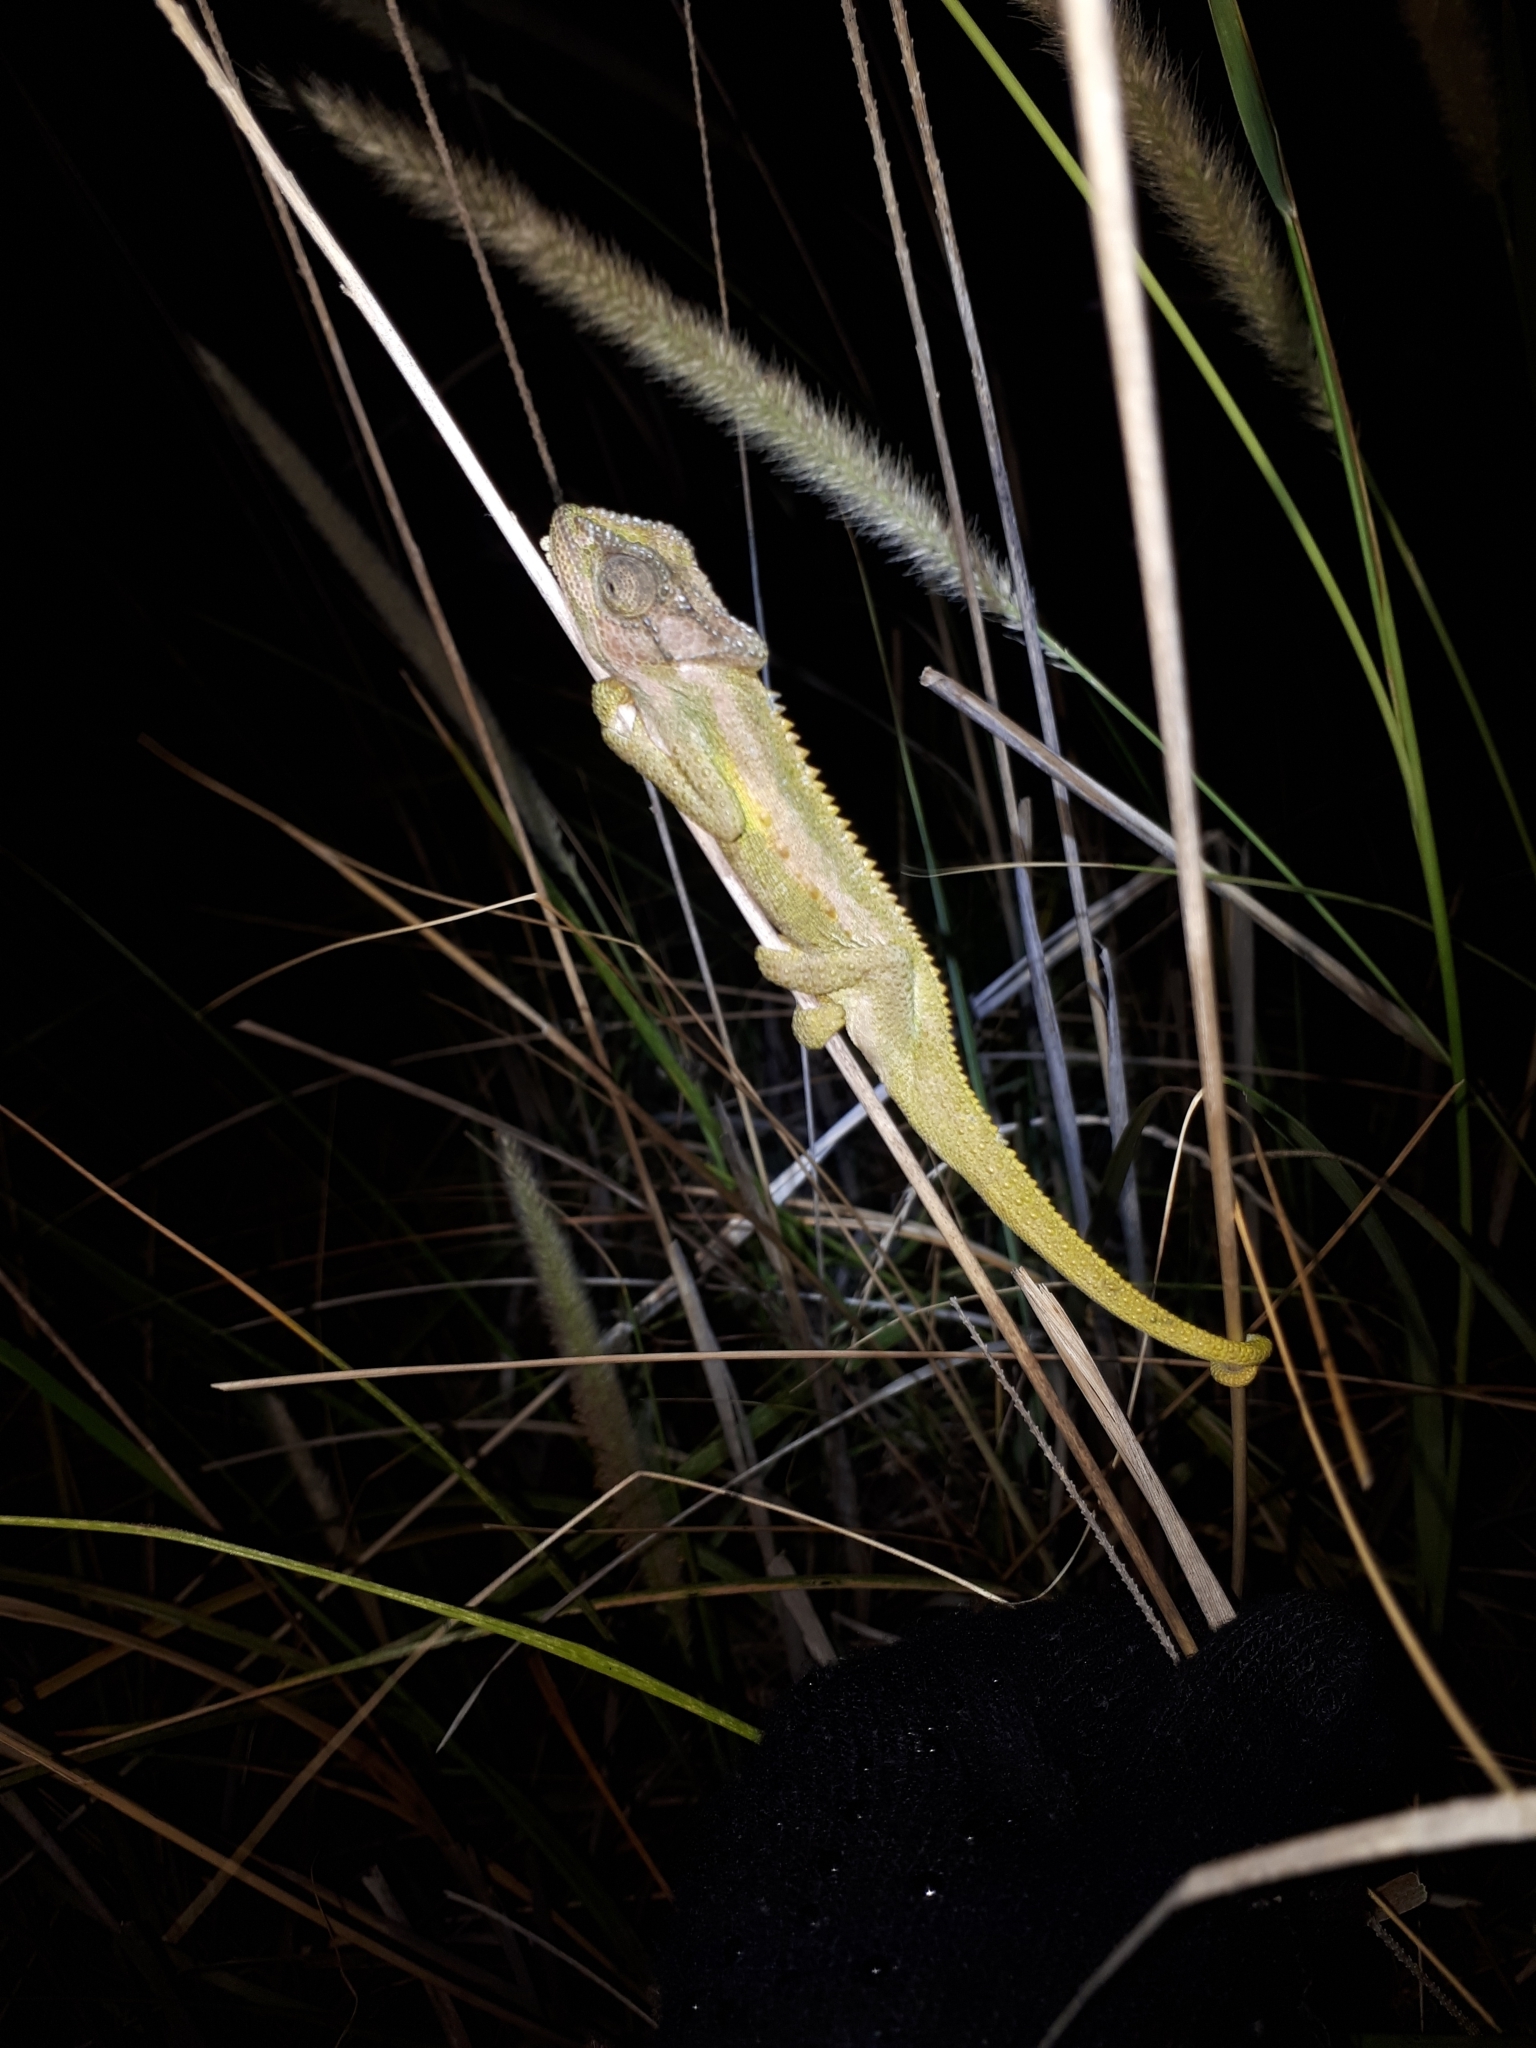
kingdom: Animalia
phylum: Chordata
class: Squamata
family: Chamaeleonidae
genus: Bradypodion
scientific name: Bradypodion pumilum
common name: Cape dwarf chameleon
